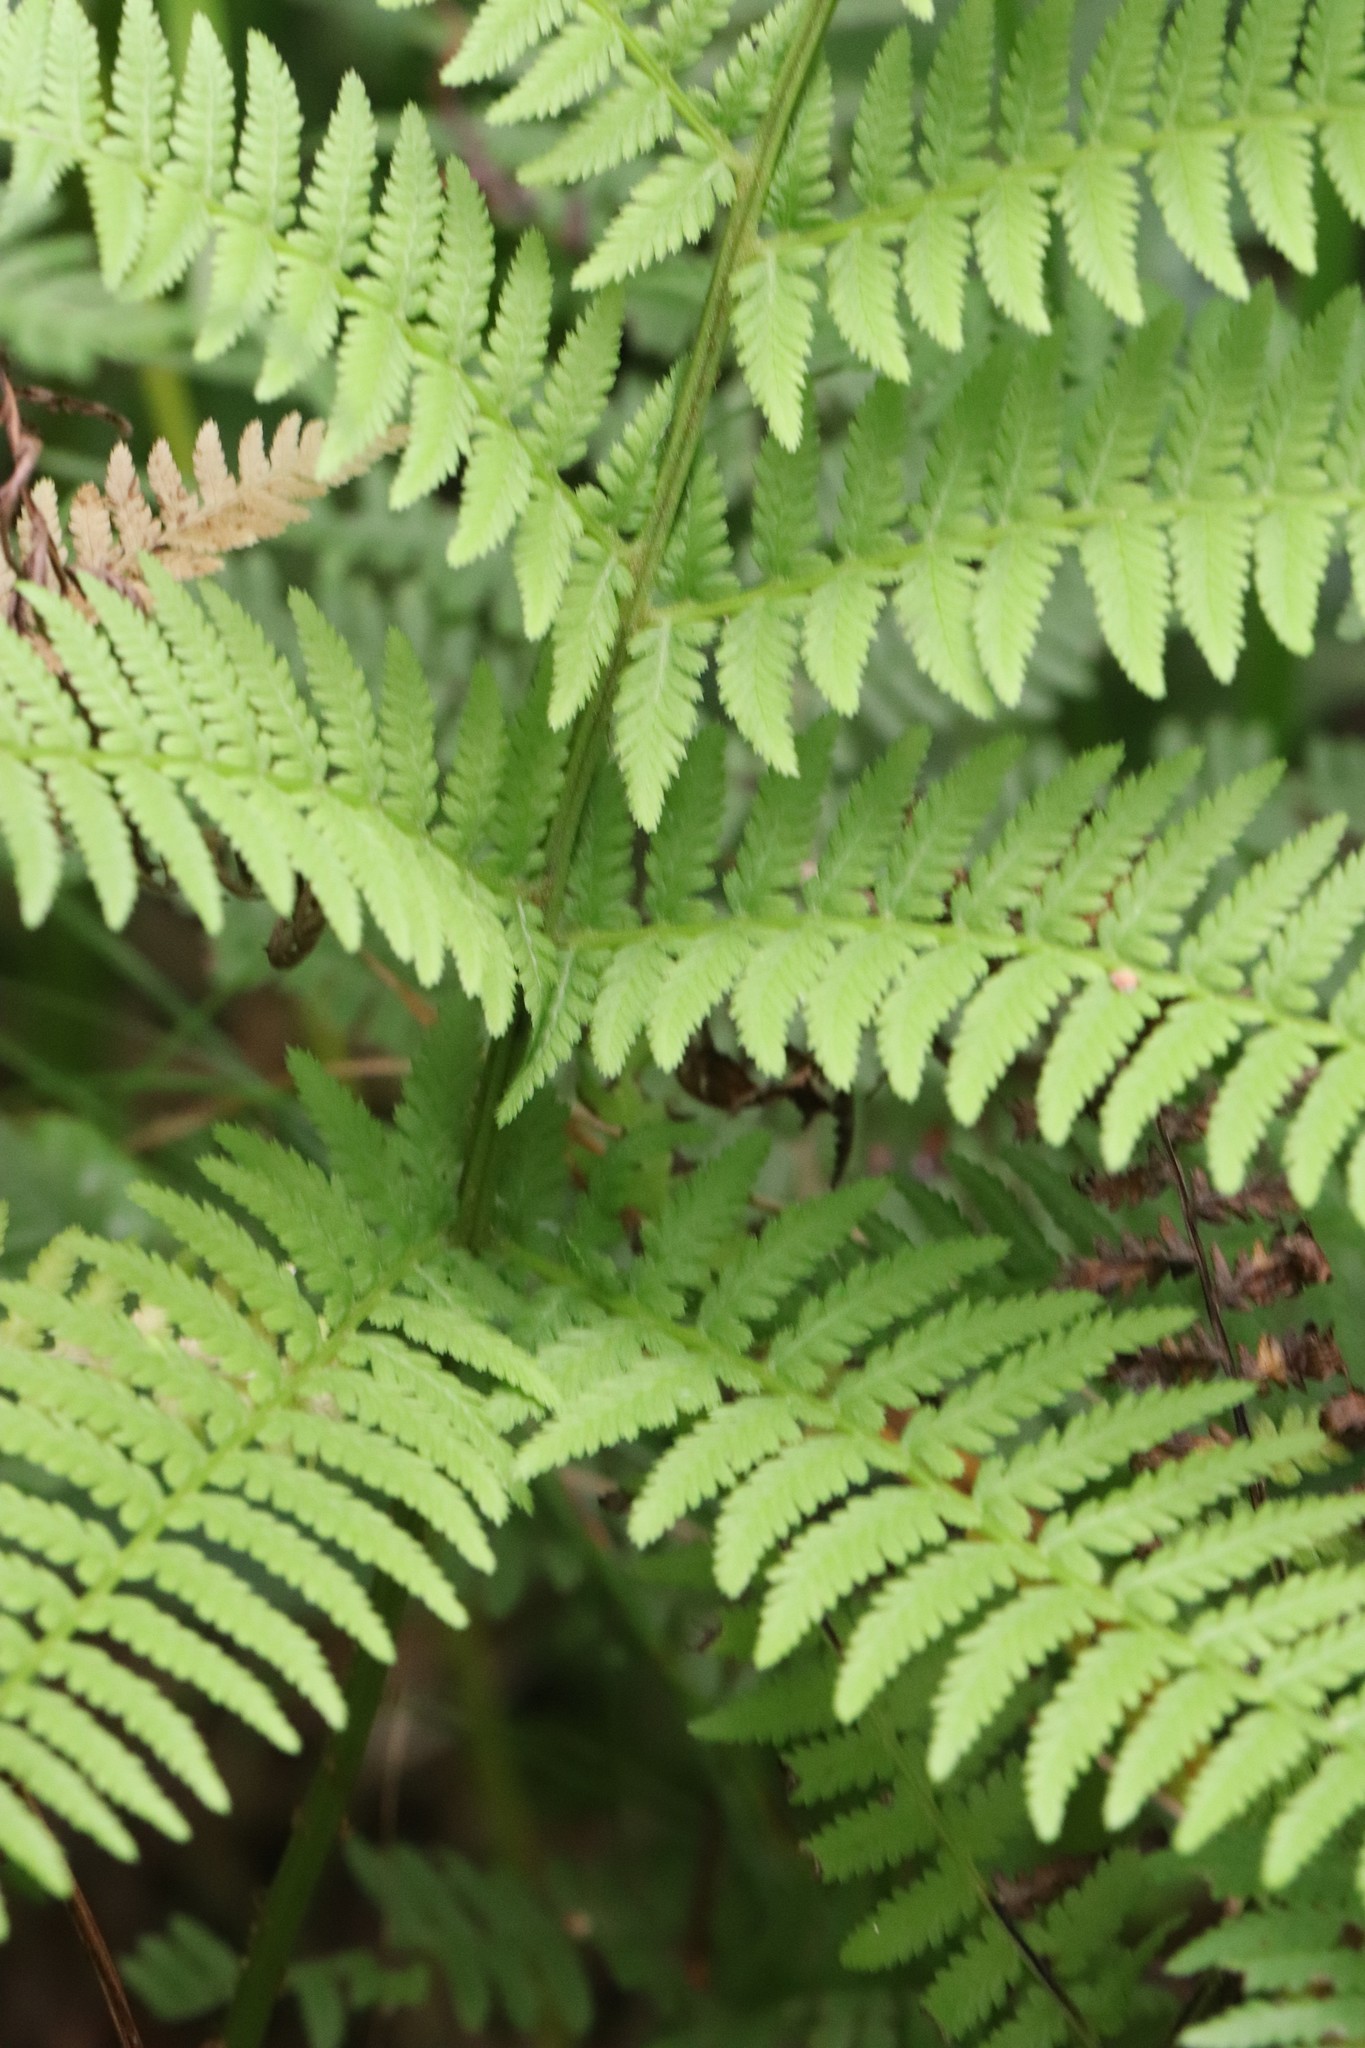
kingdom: Plantae
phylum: Tracheophyta
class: Polypodiopsida
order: Polypodiales
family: Athyriaceae
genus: Athyrium
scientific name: Athyrium filix-femina
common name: Lady fern
